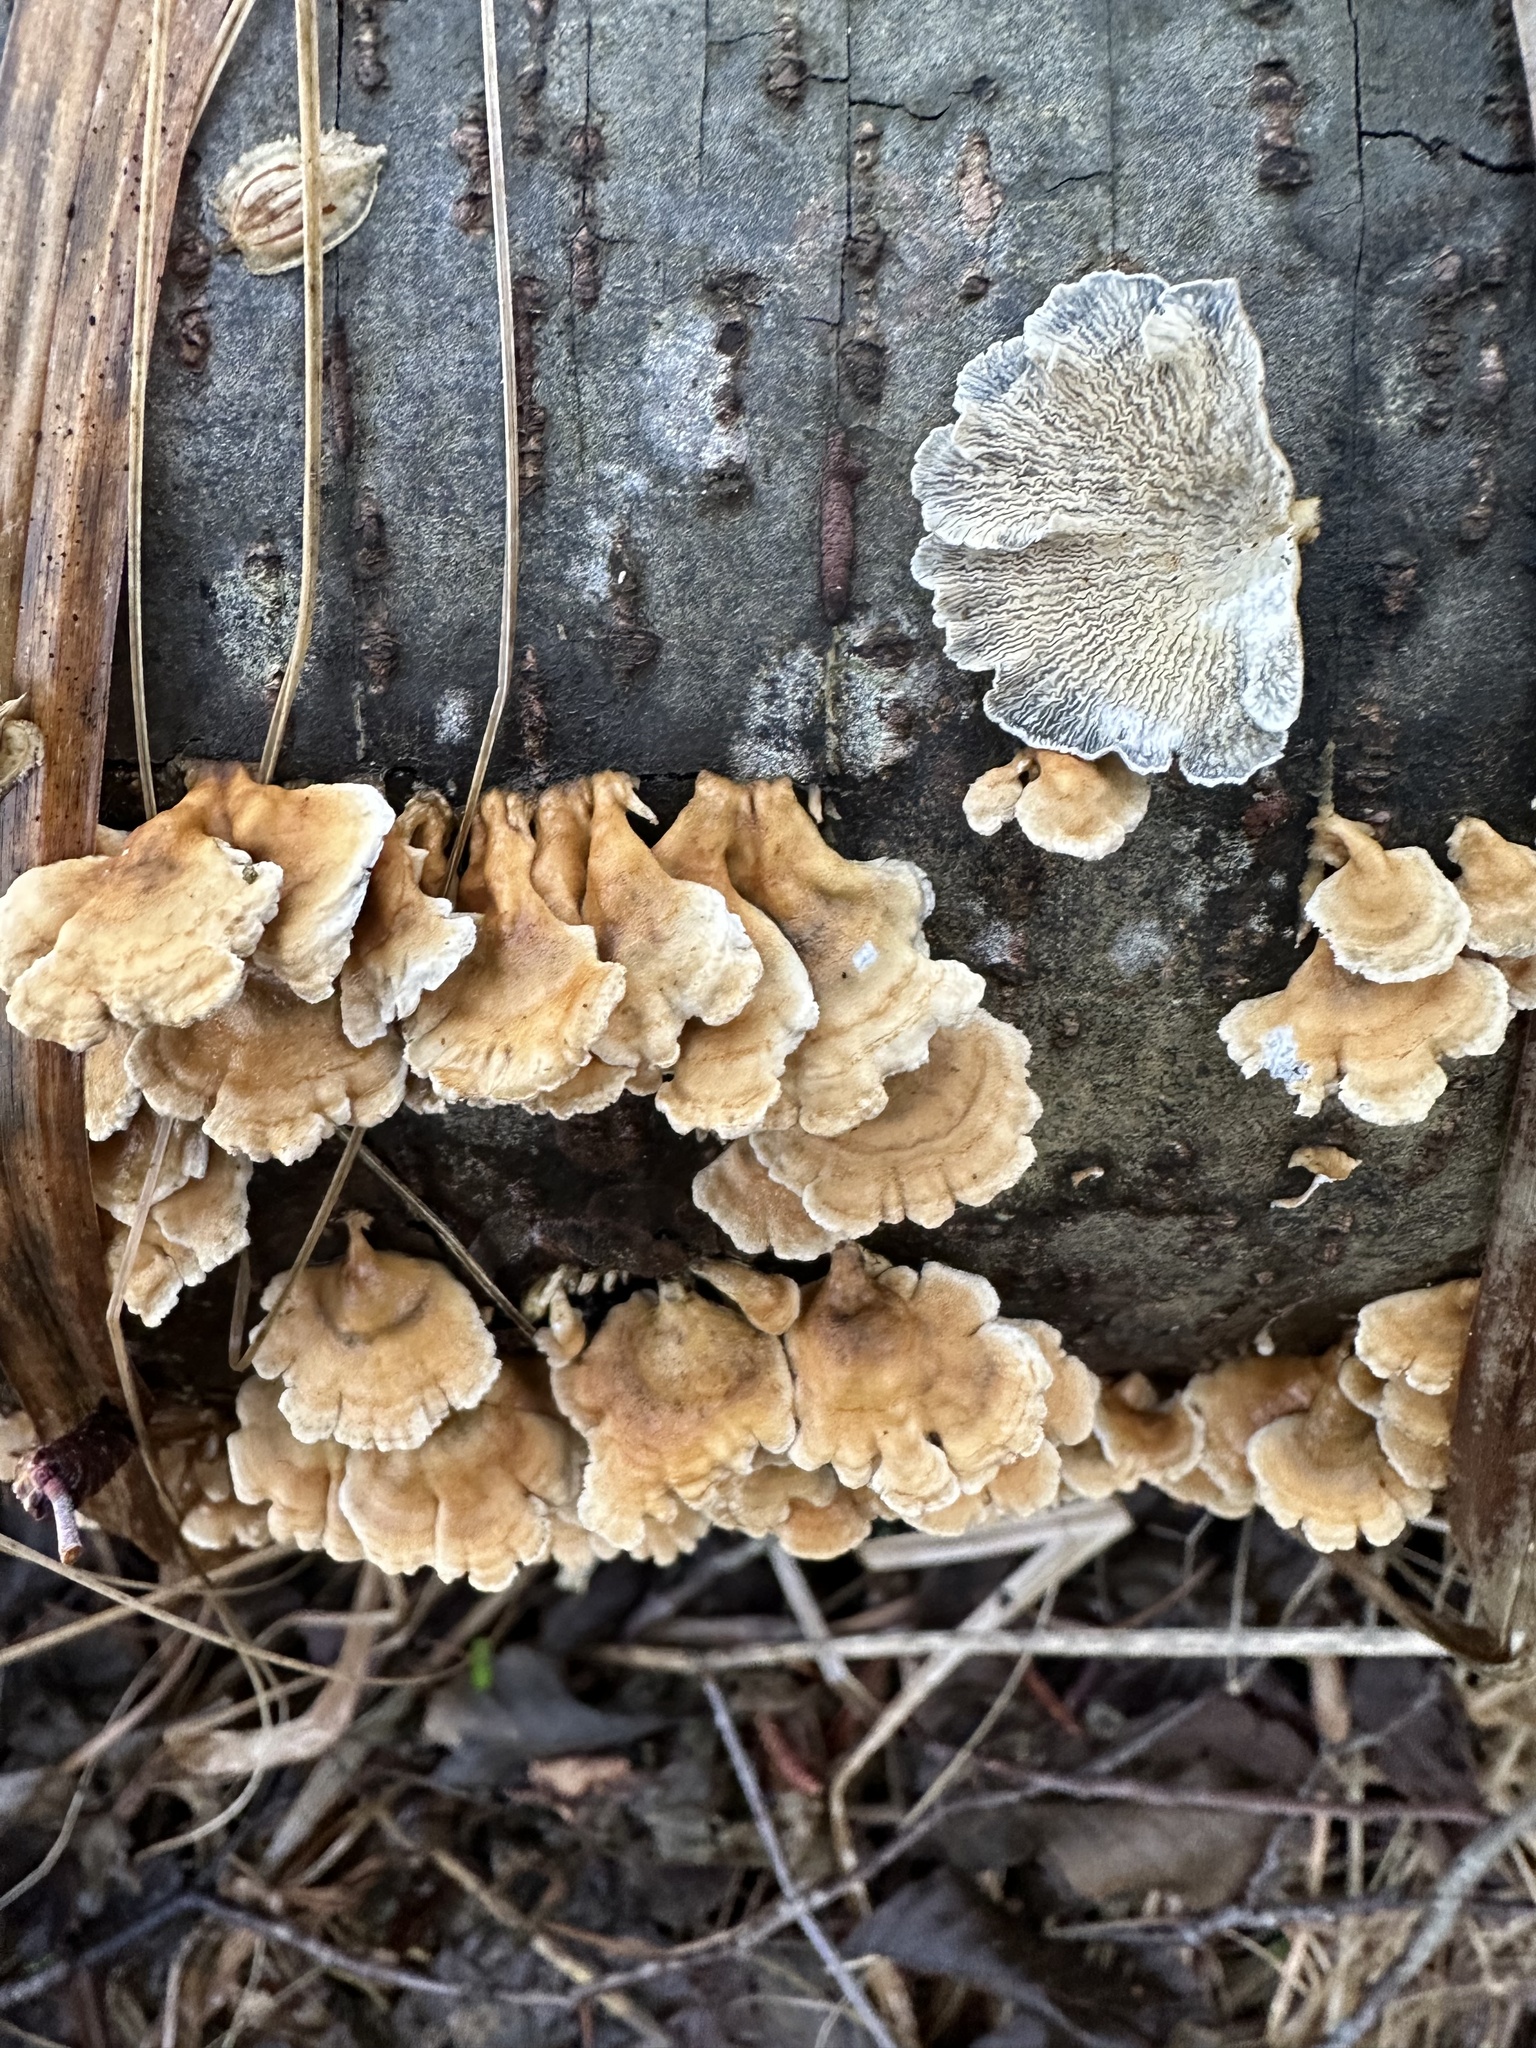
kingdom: Fungi
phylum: Basidiomycota
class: Agaricomycetes
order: Amylocorticiales
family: Amylocorticiaceae
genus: Plicaturopsis
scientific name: Plicaturopsis crispa
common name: Crimped gill
